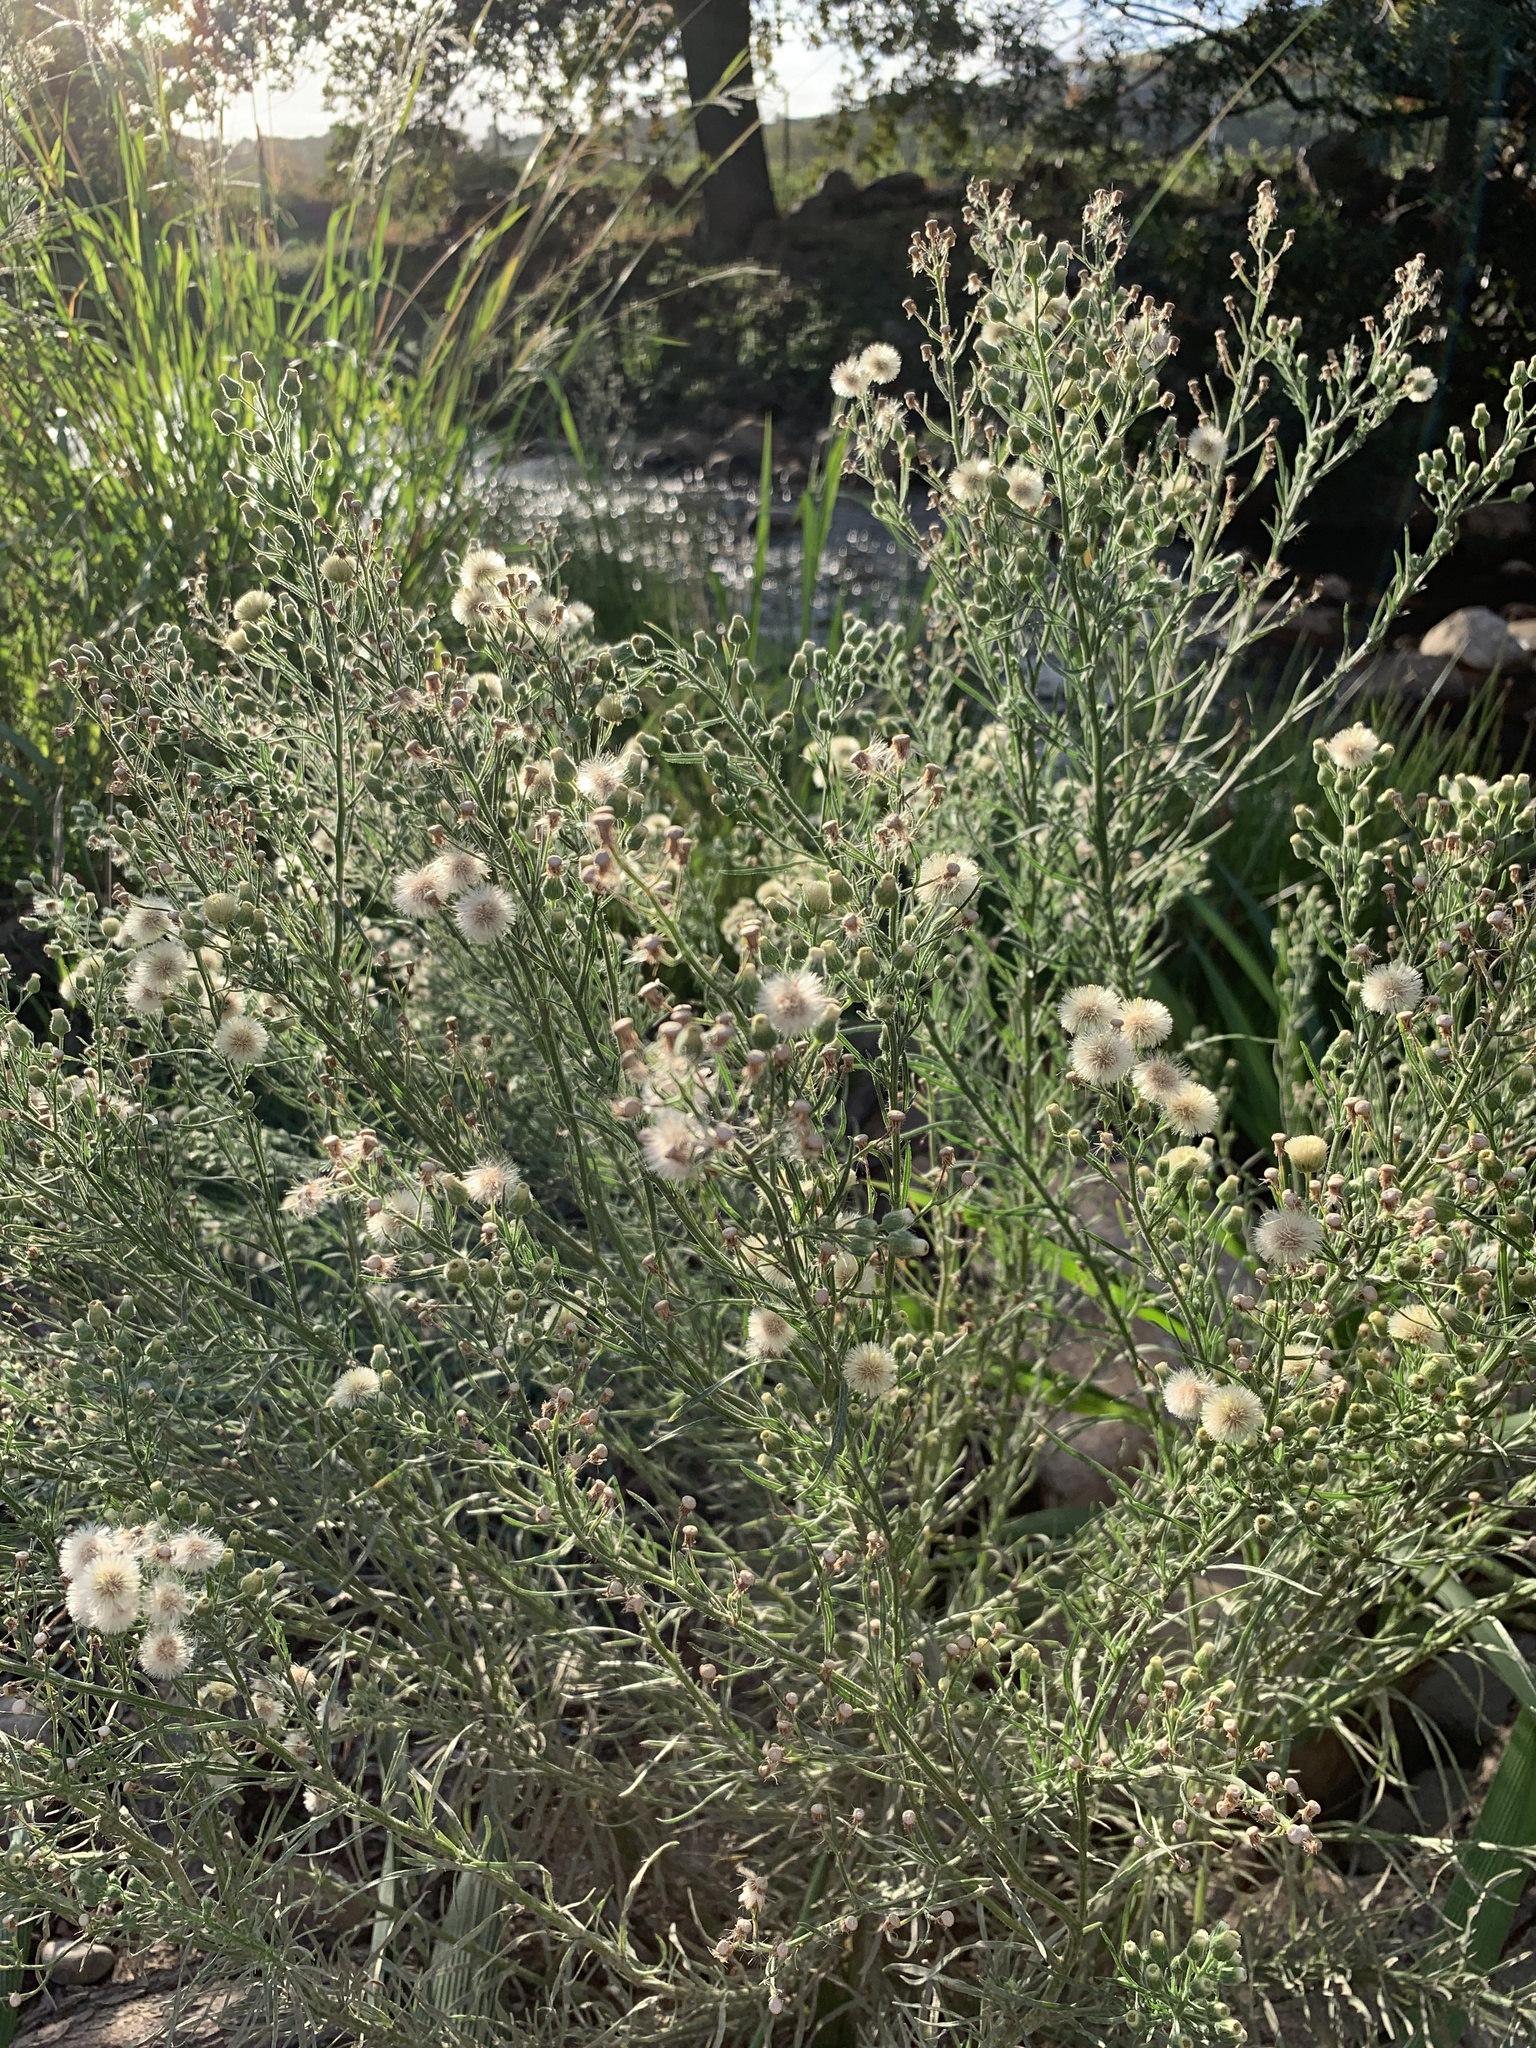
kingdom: Plantae
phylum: Tracheophyta
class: Magnoliopsida
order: Asterales
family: Asteraceae
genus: Erigeron
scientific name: Erigeron bonariensis
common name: Argentine fleabane
